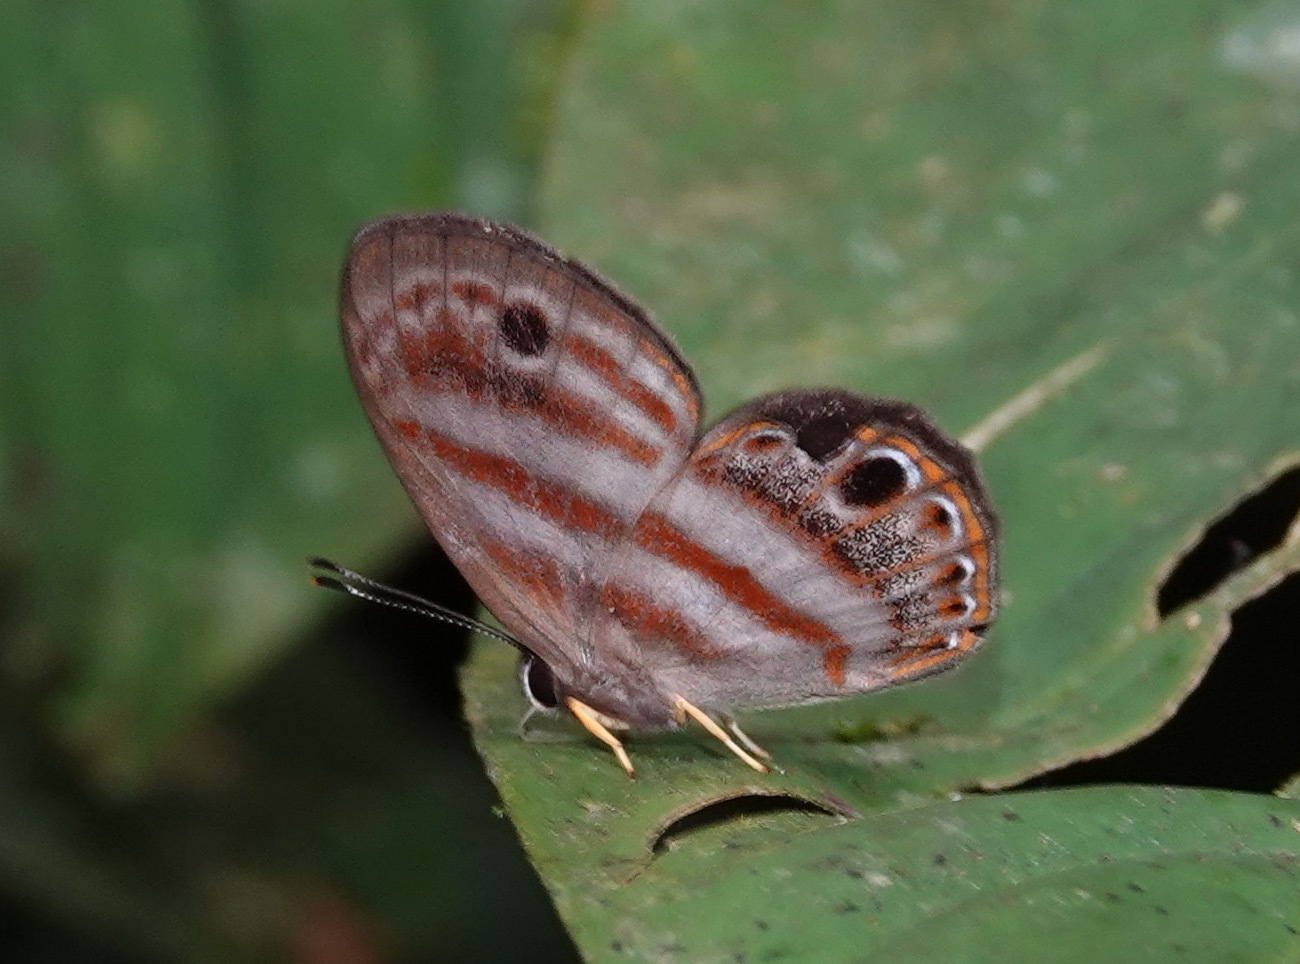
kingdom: Animalia
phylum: Arthropoda
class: Insecta
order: Lepidoptera
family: Riodinidae
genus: Eurylasia
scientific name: Eurylasia
